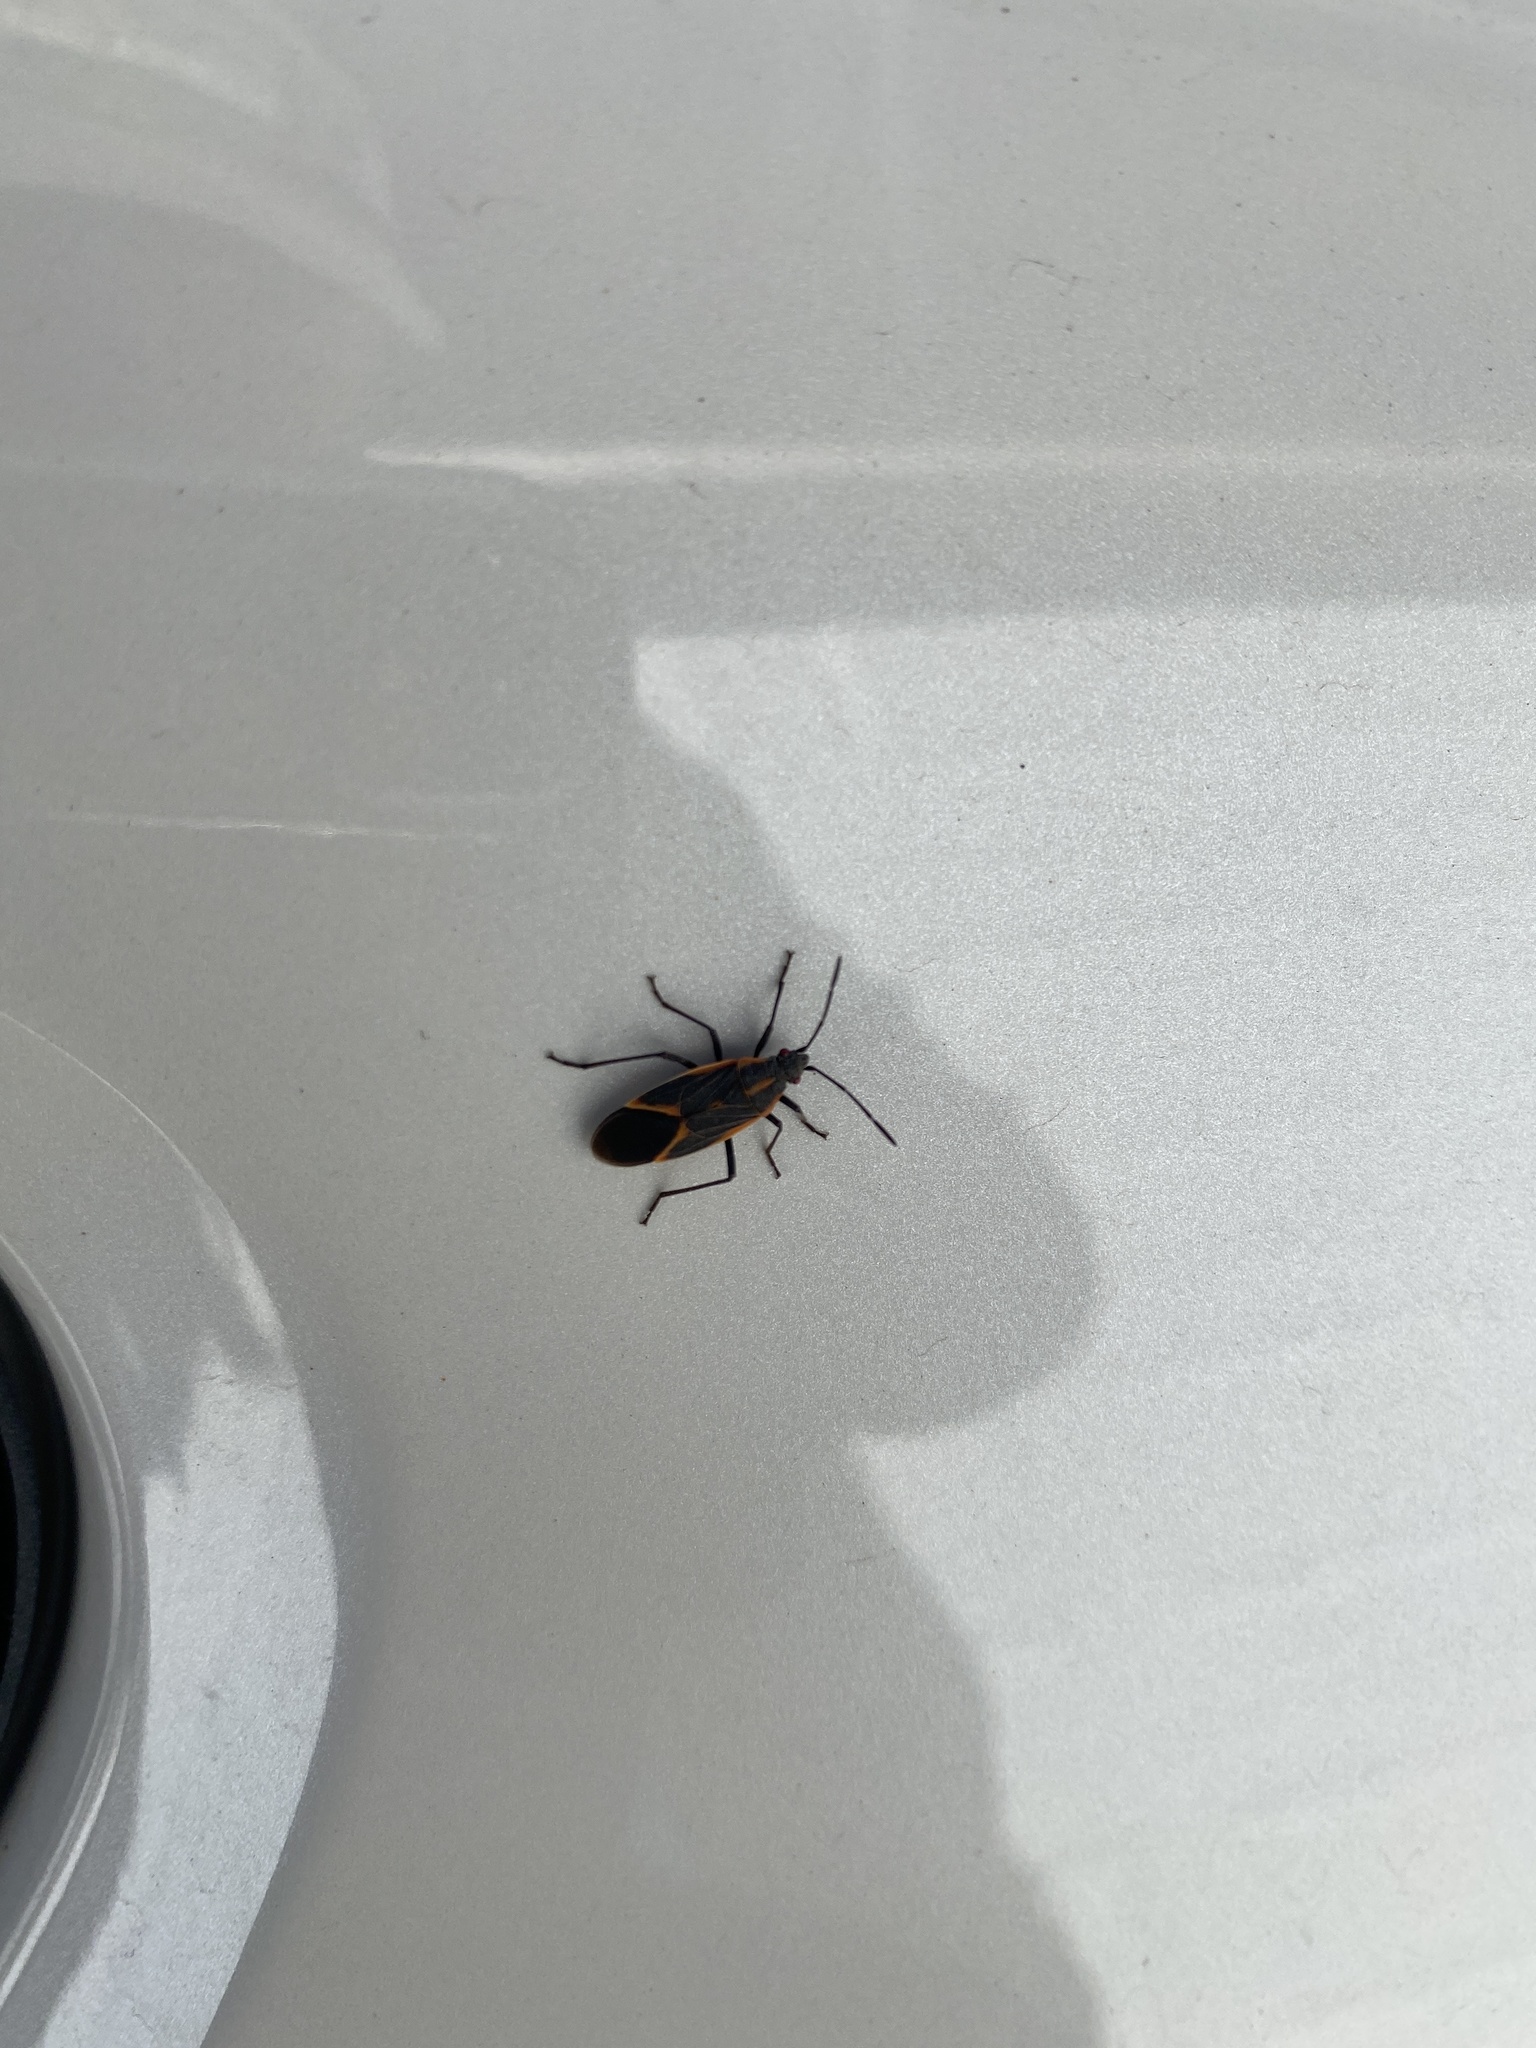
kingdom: Animalia
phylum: Arthropoda
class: Insecta
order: Hemiptera
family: Rhopalidae
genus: Boisea
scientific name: Boisea trivittata
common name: Boxelder bug
